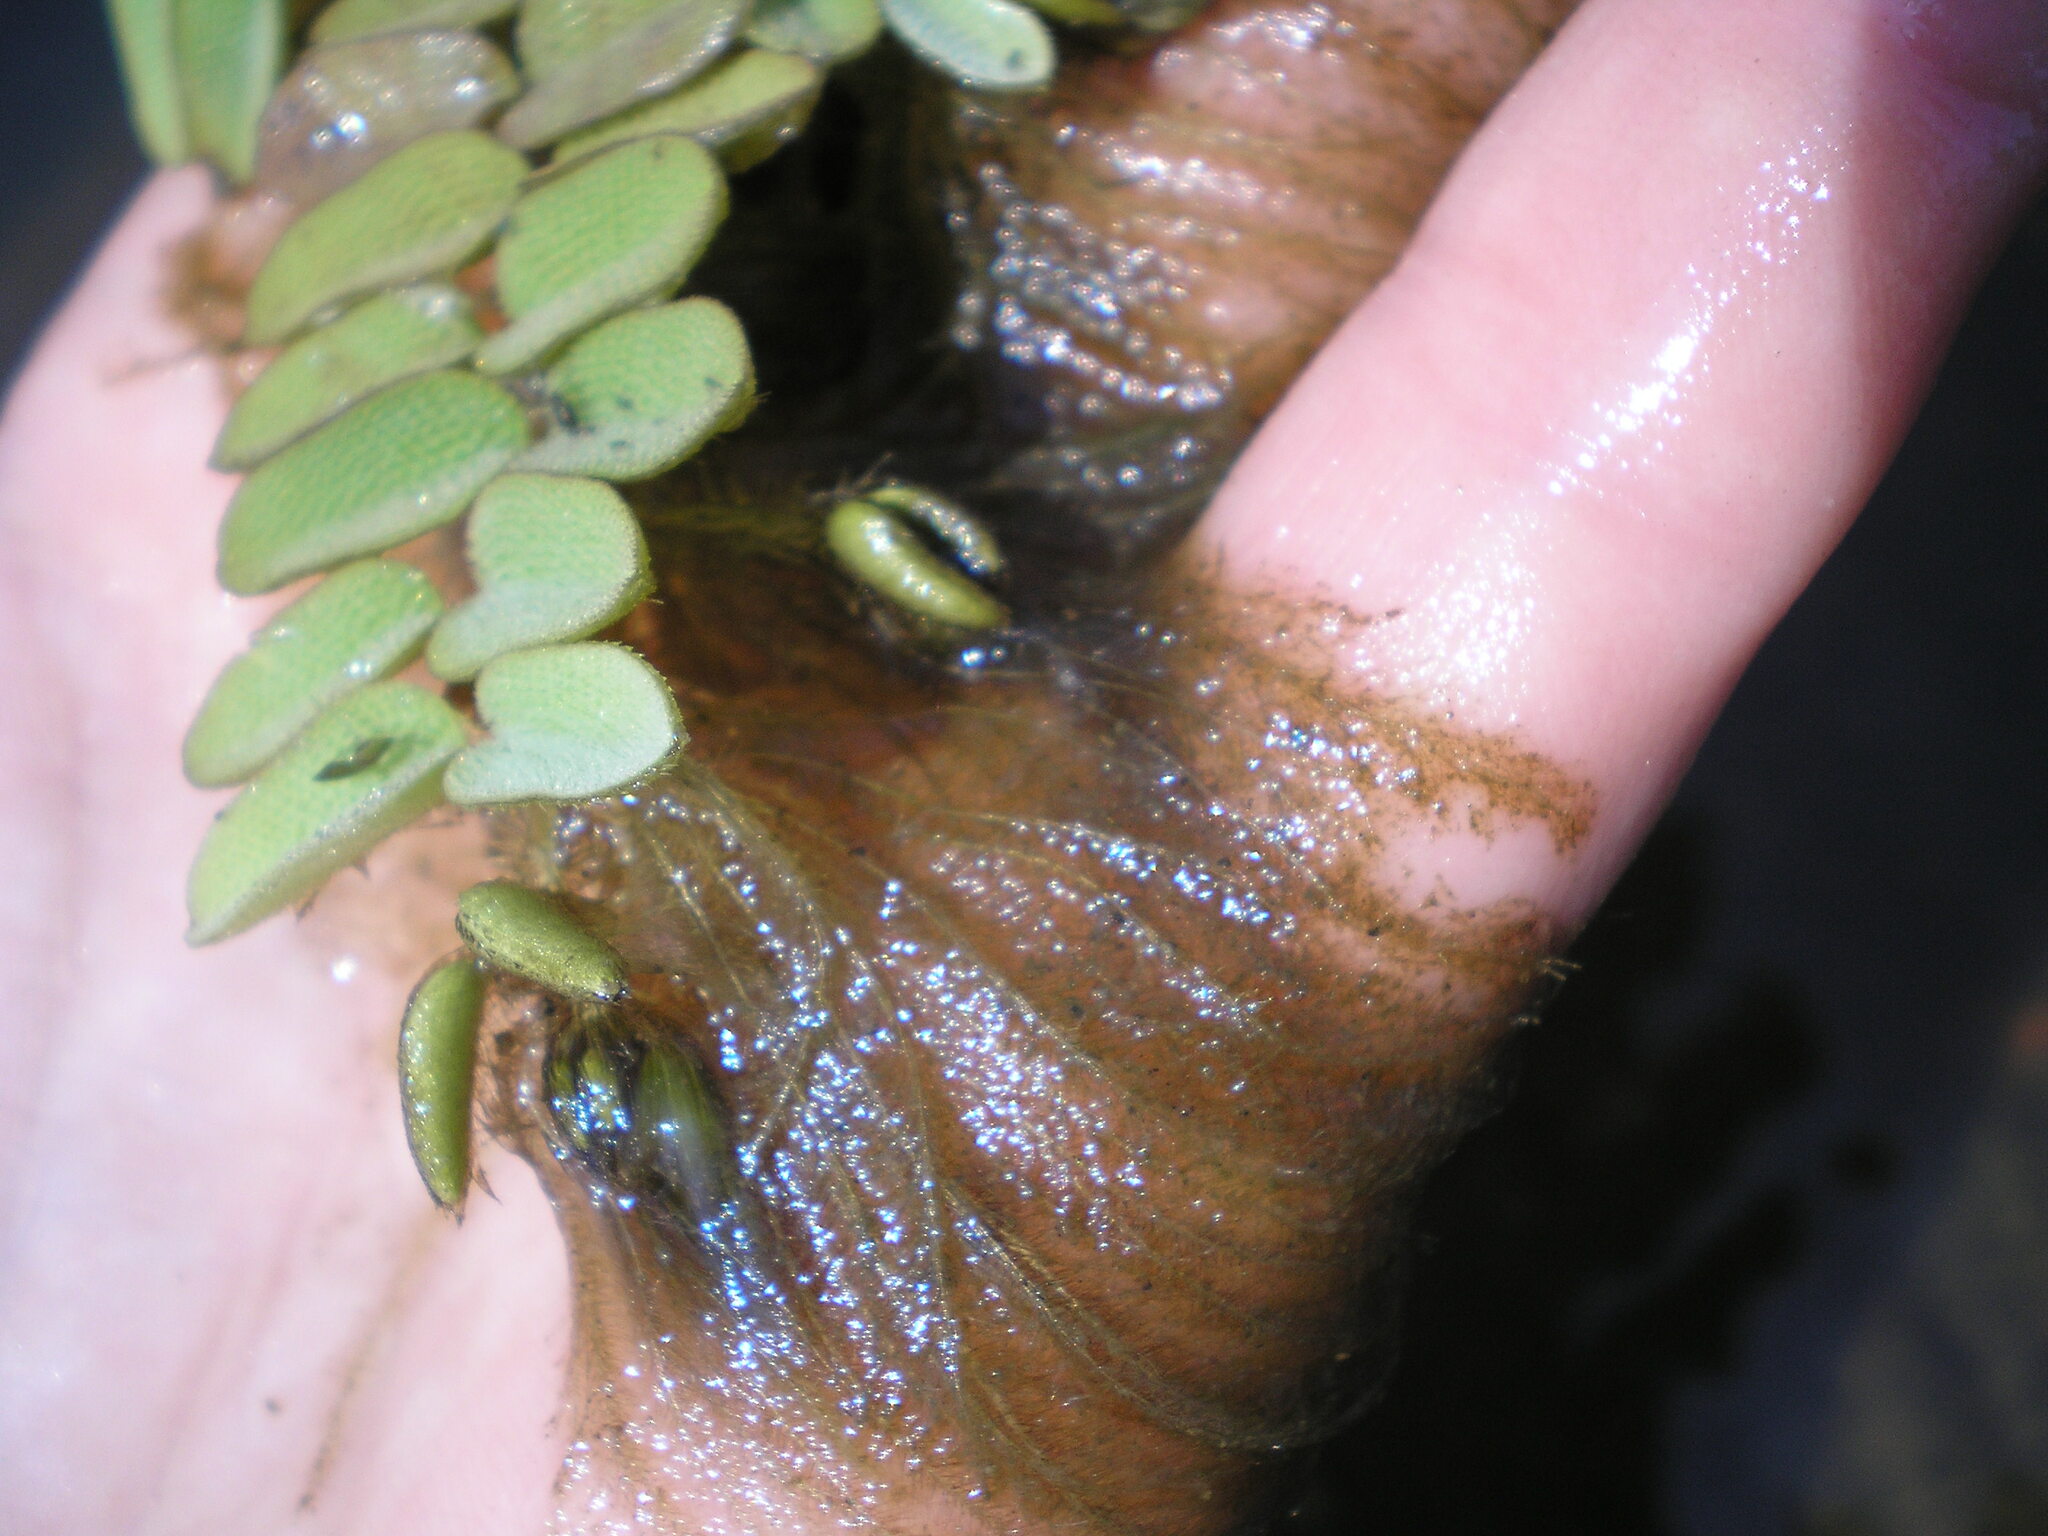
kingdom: Plantae
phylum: Tracheophyta
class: Polypodiopsida
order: Salviniales
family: Salviniaceae
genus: Salvinia
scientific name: Salvinia natans
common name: Floating fern
